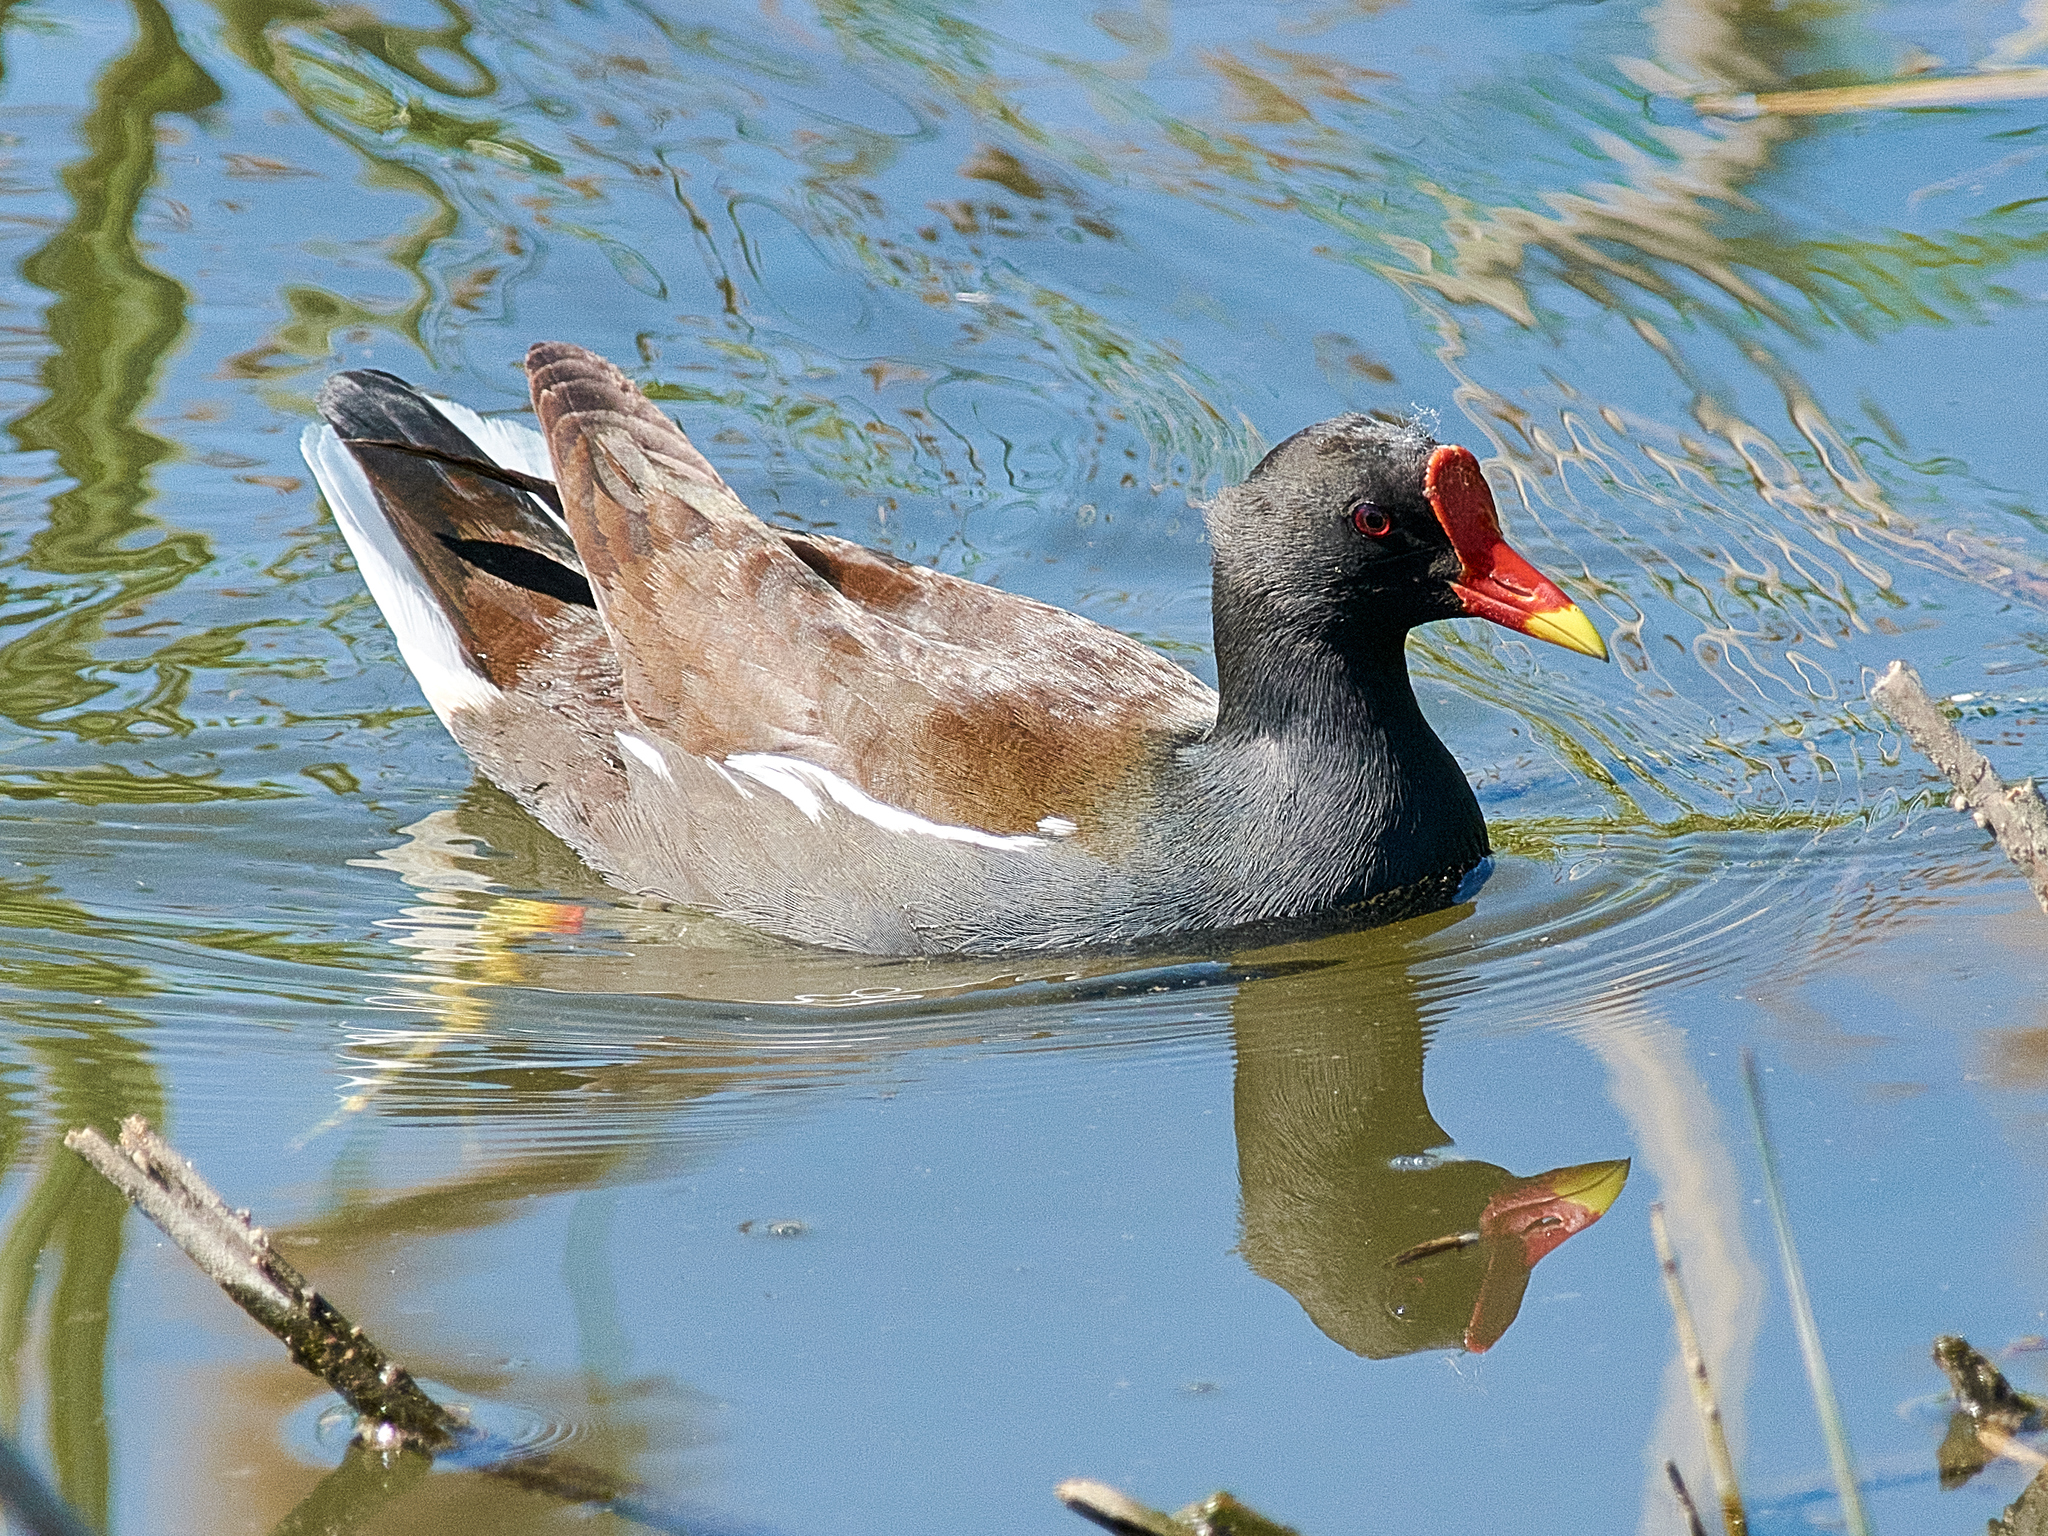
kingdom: Animalia
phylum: Chordata
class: Aves
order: Gruiformes
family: Rallidae
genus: Gallinula
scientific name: Gallinula chloropus
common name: Common moorhen
